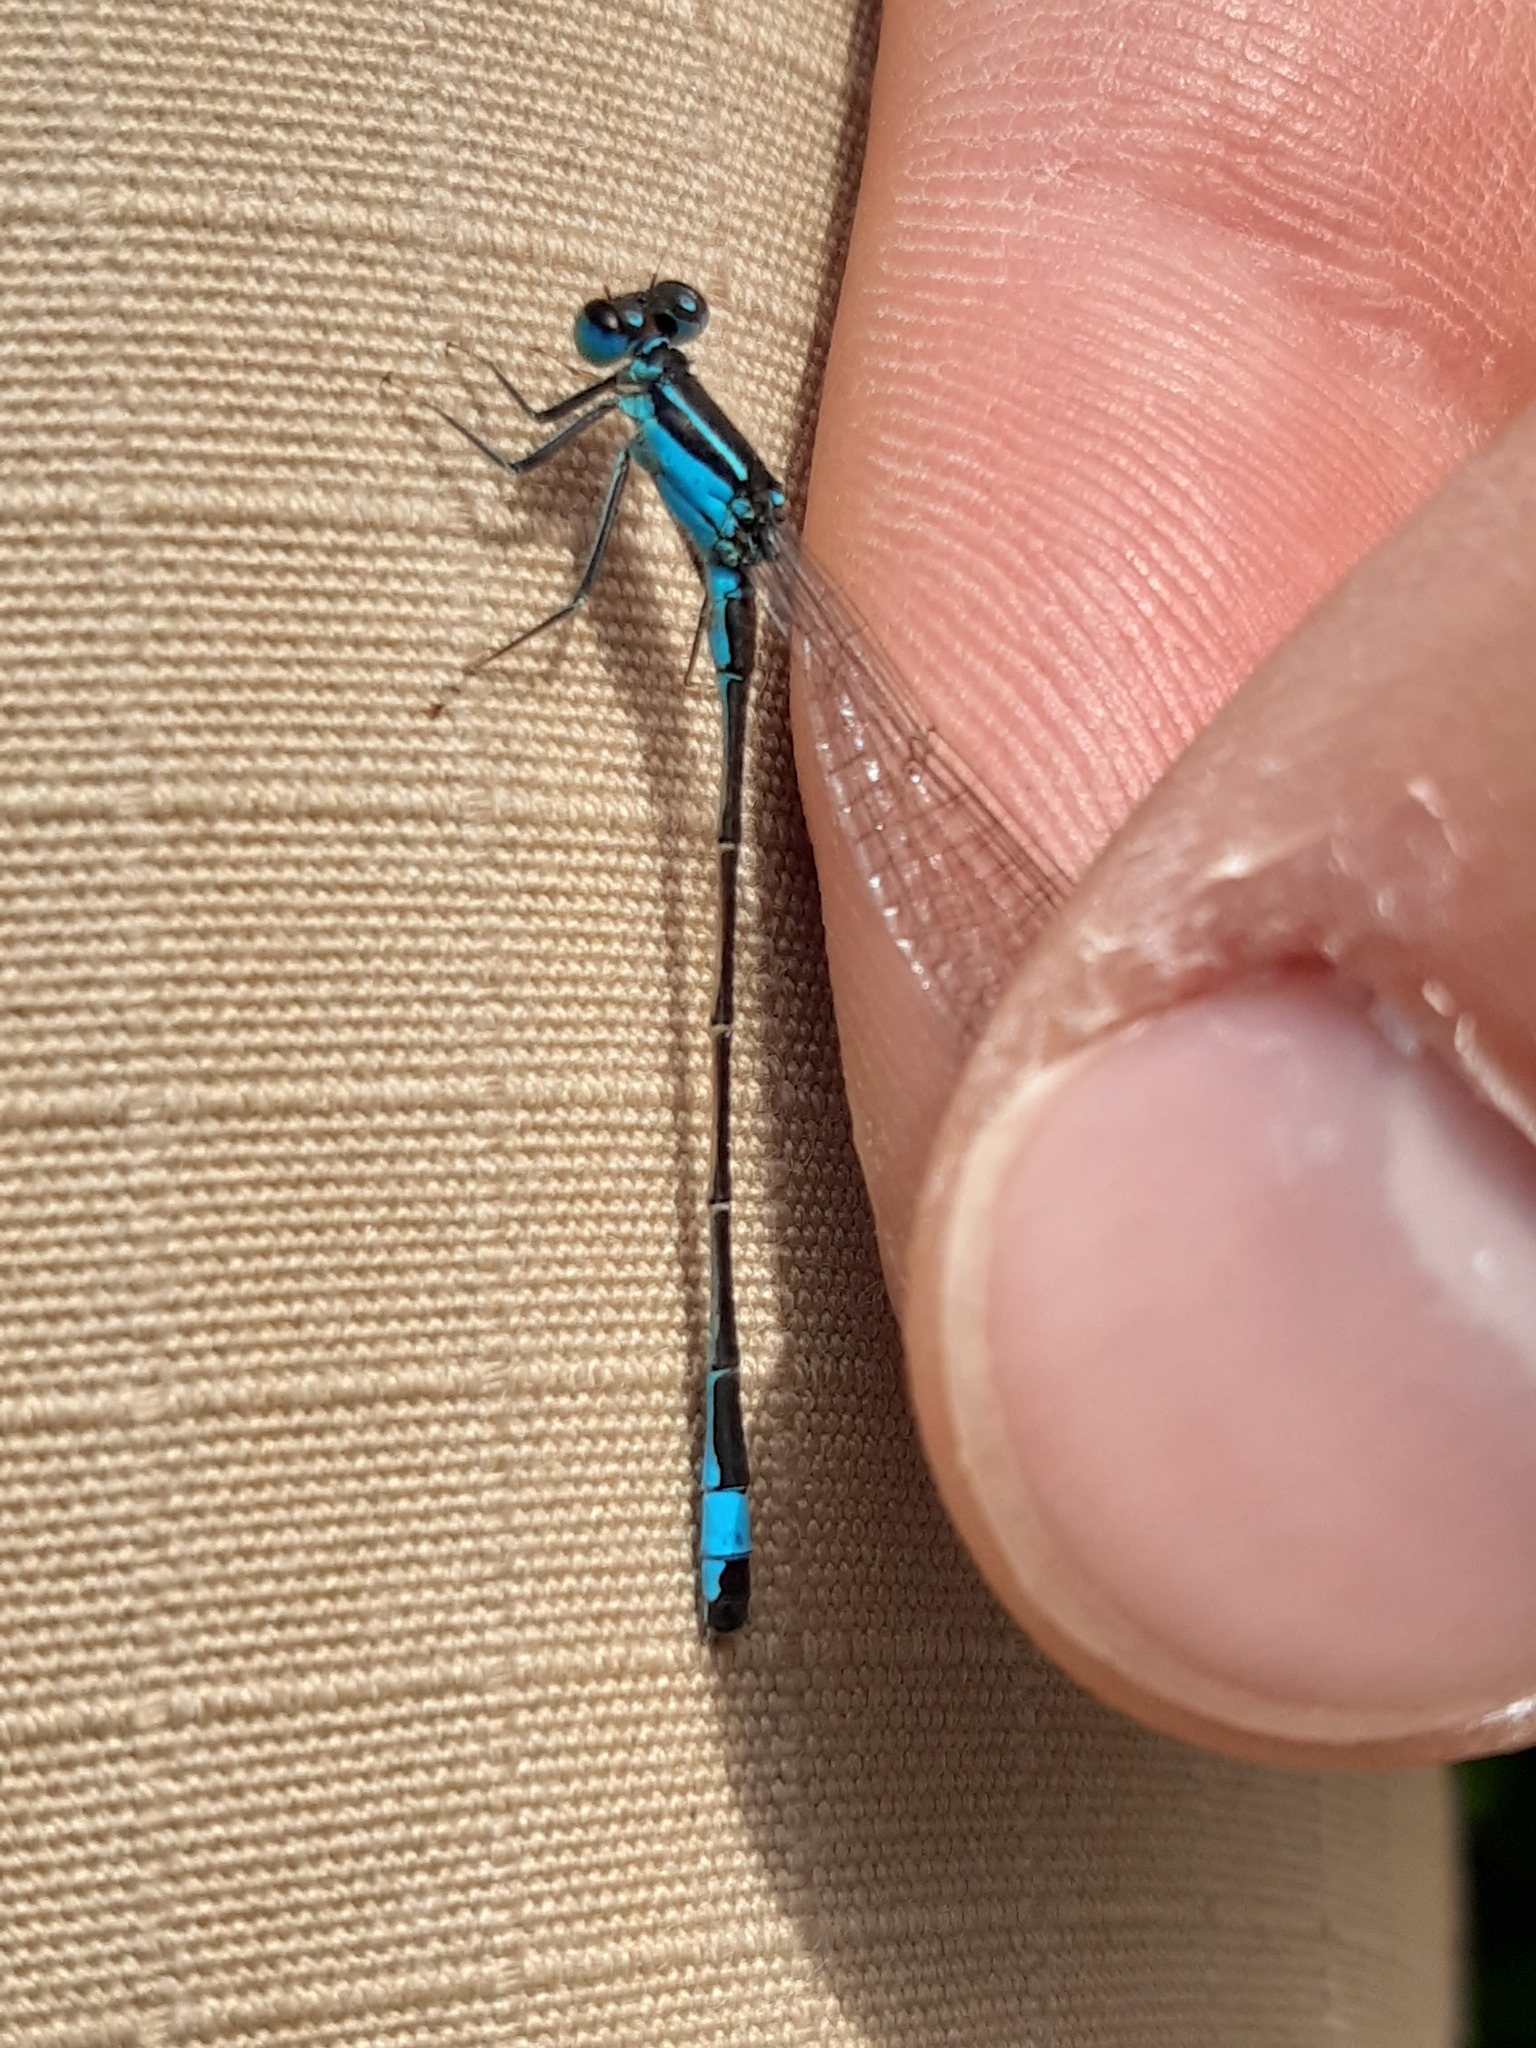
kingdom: Animalia
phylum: Arthropoda
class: Insecta
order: Odonata
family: Coenagrionidae
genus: Ischnura
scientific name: Ischnura elegans
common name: Blue-tailed damselfly
